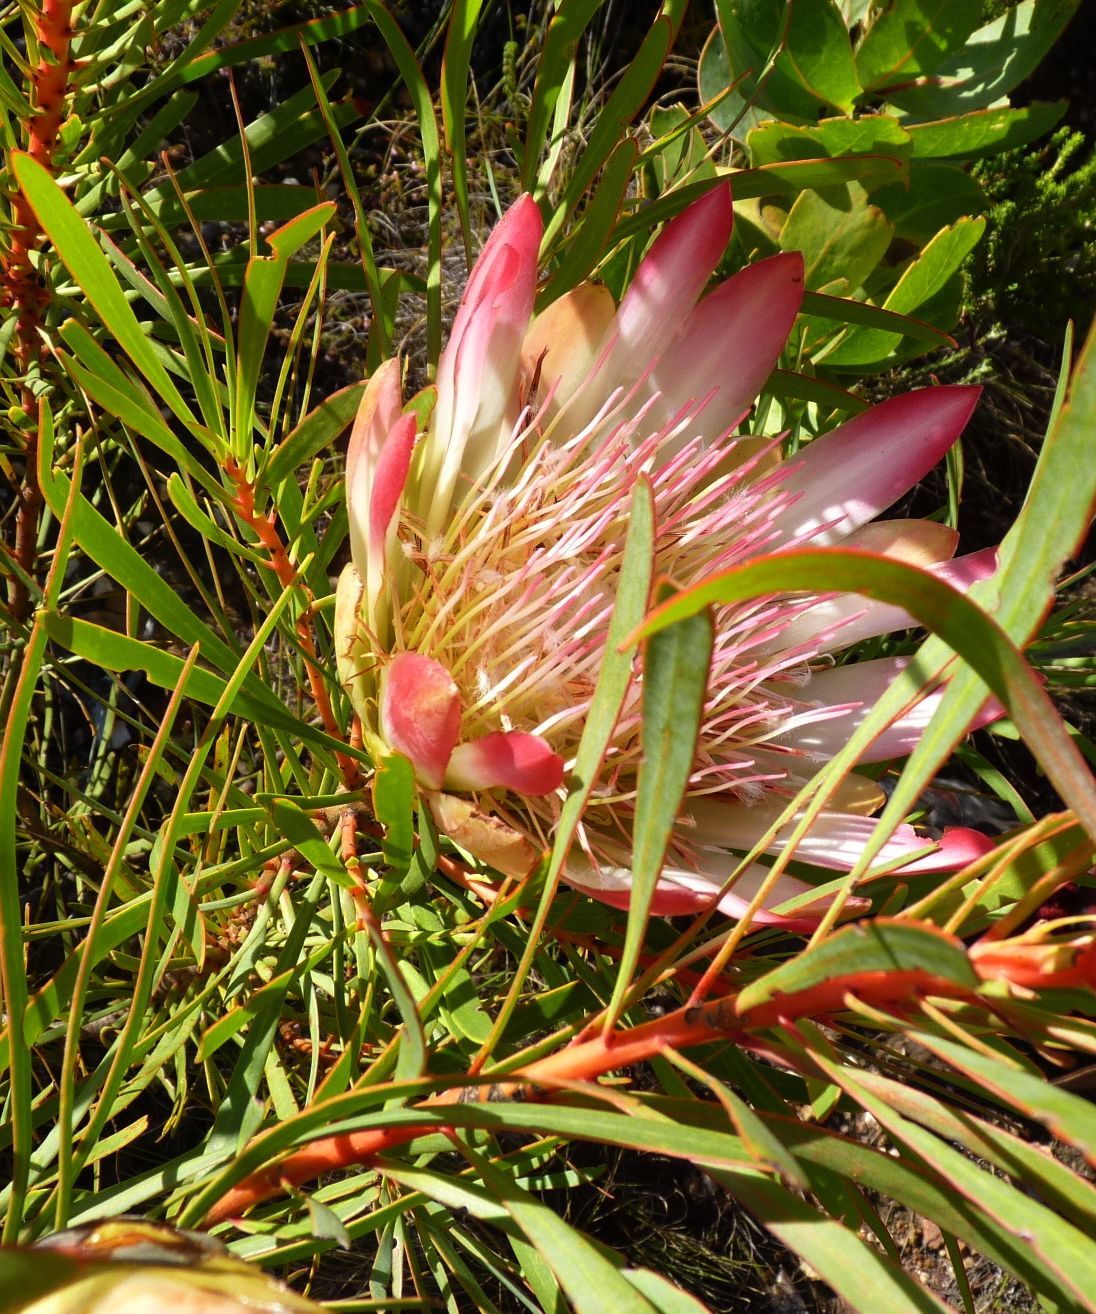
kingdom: Plantae
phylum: Tracheophyta
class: Magnoliopsida
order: Proteales
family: Proteaceae
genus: Protea
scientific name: Protea repens
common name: Sugarbush
